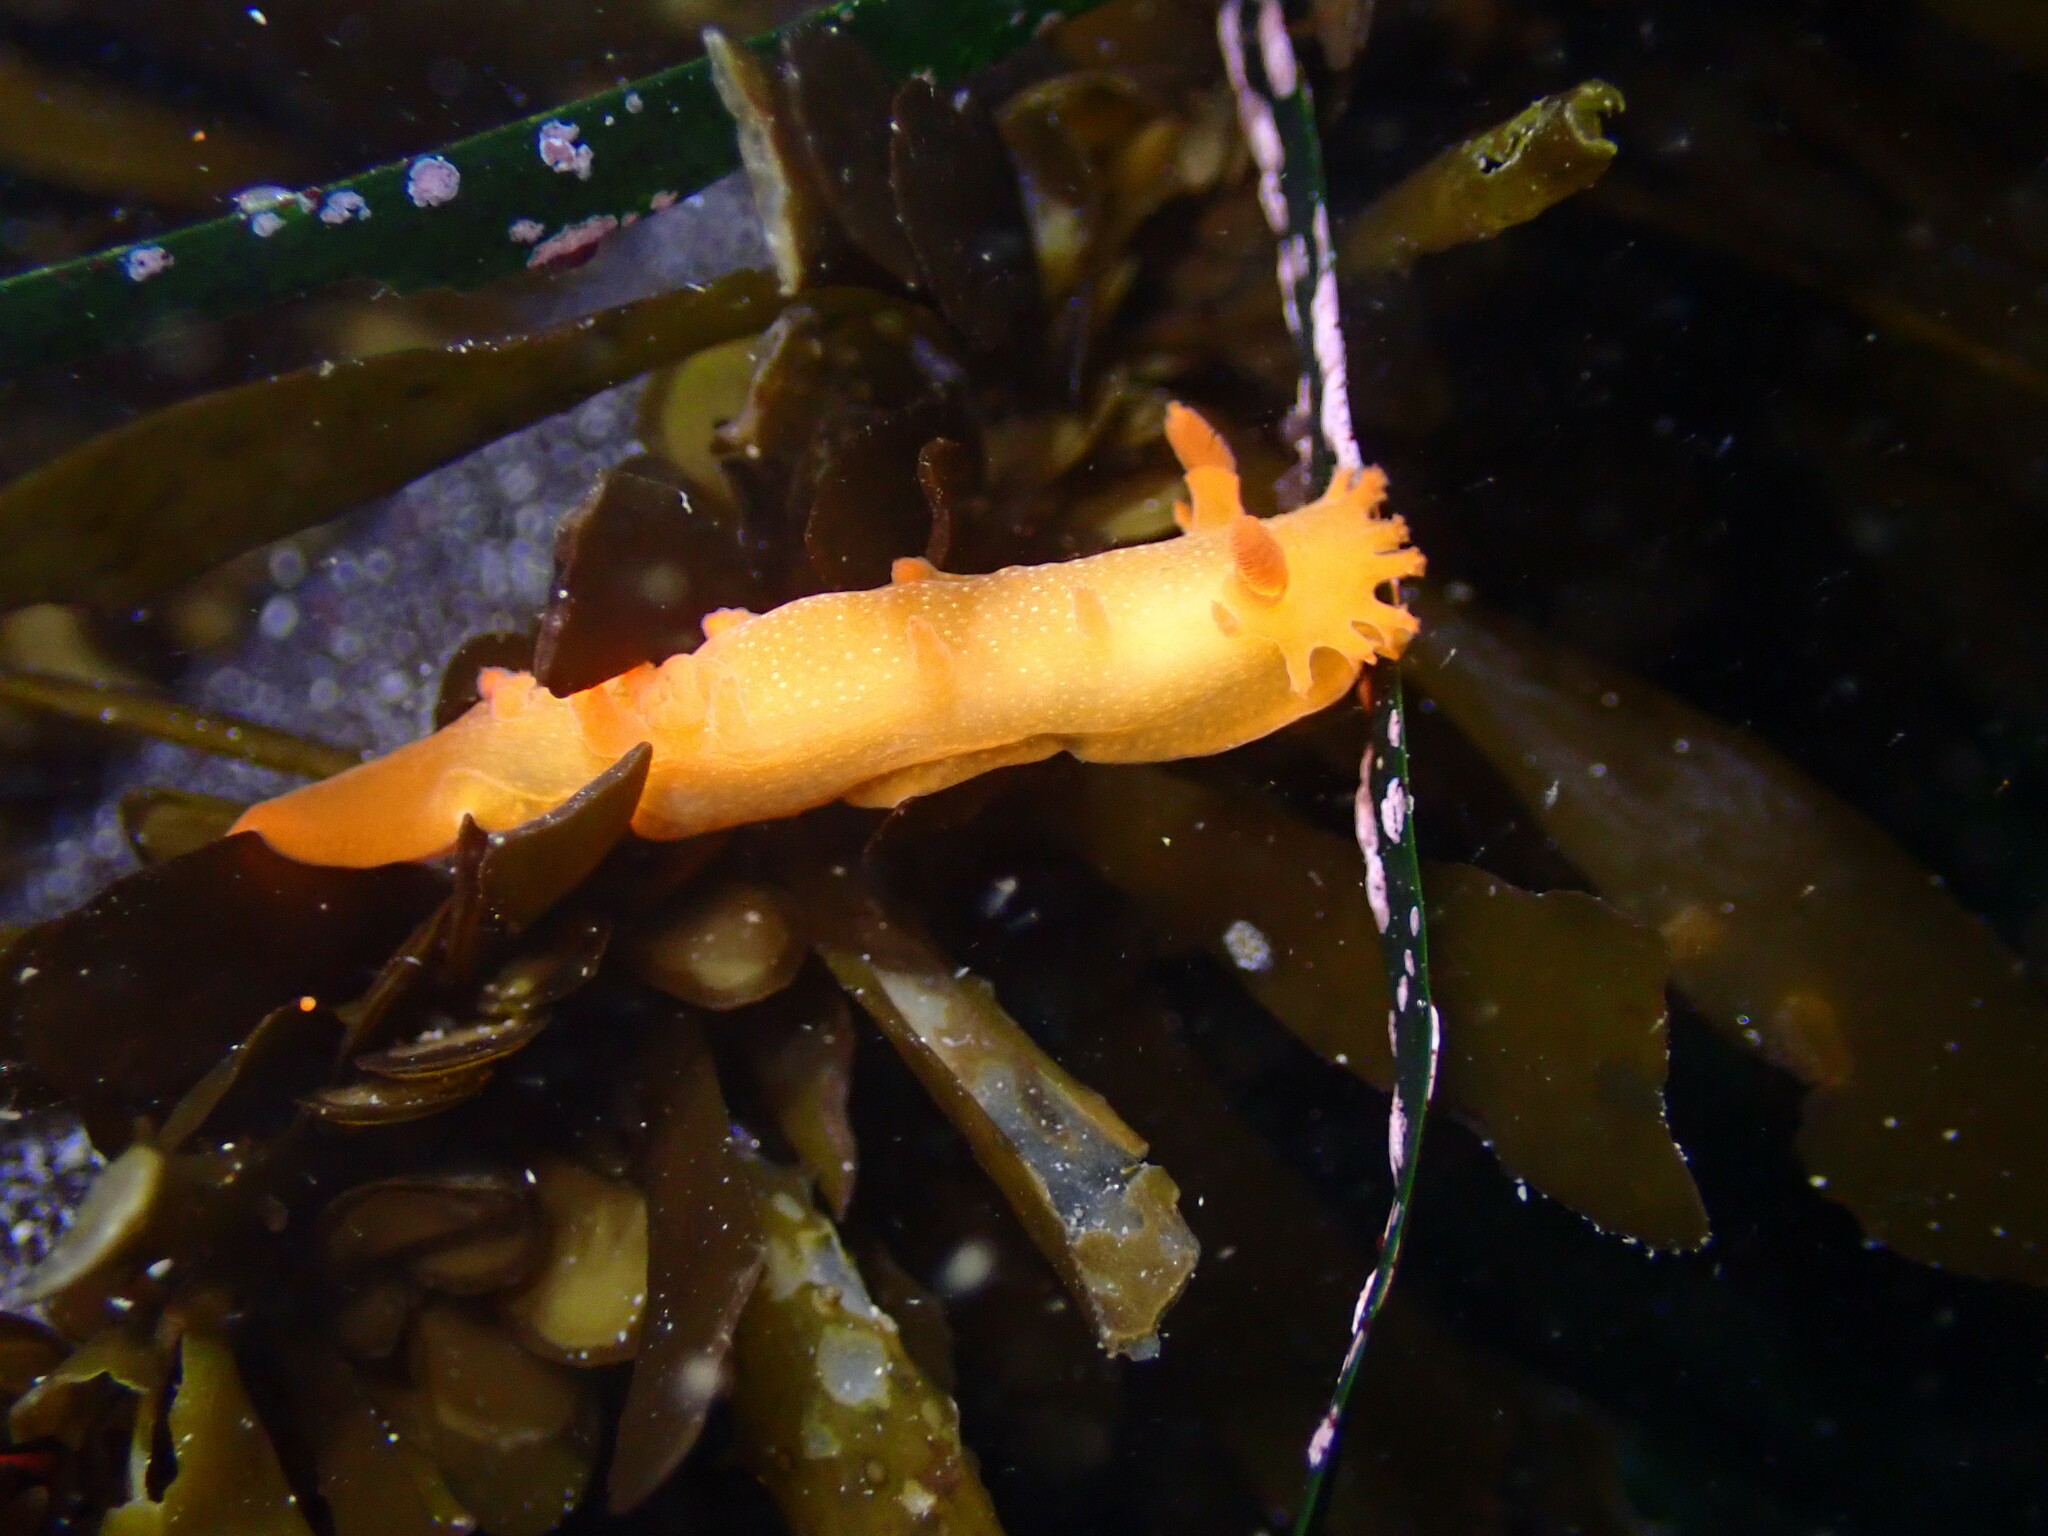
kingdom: Animalia
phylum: Mollusca
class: Gastropoda
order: Nudibranchia
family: Polyceridae
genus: Triopha
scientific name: Triopha maculata
